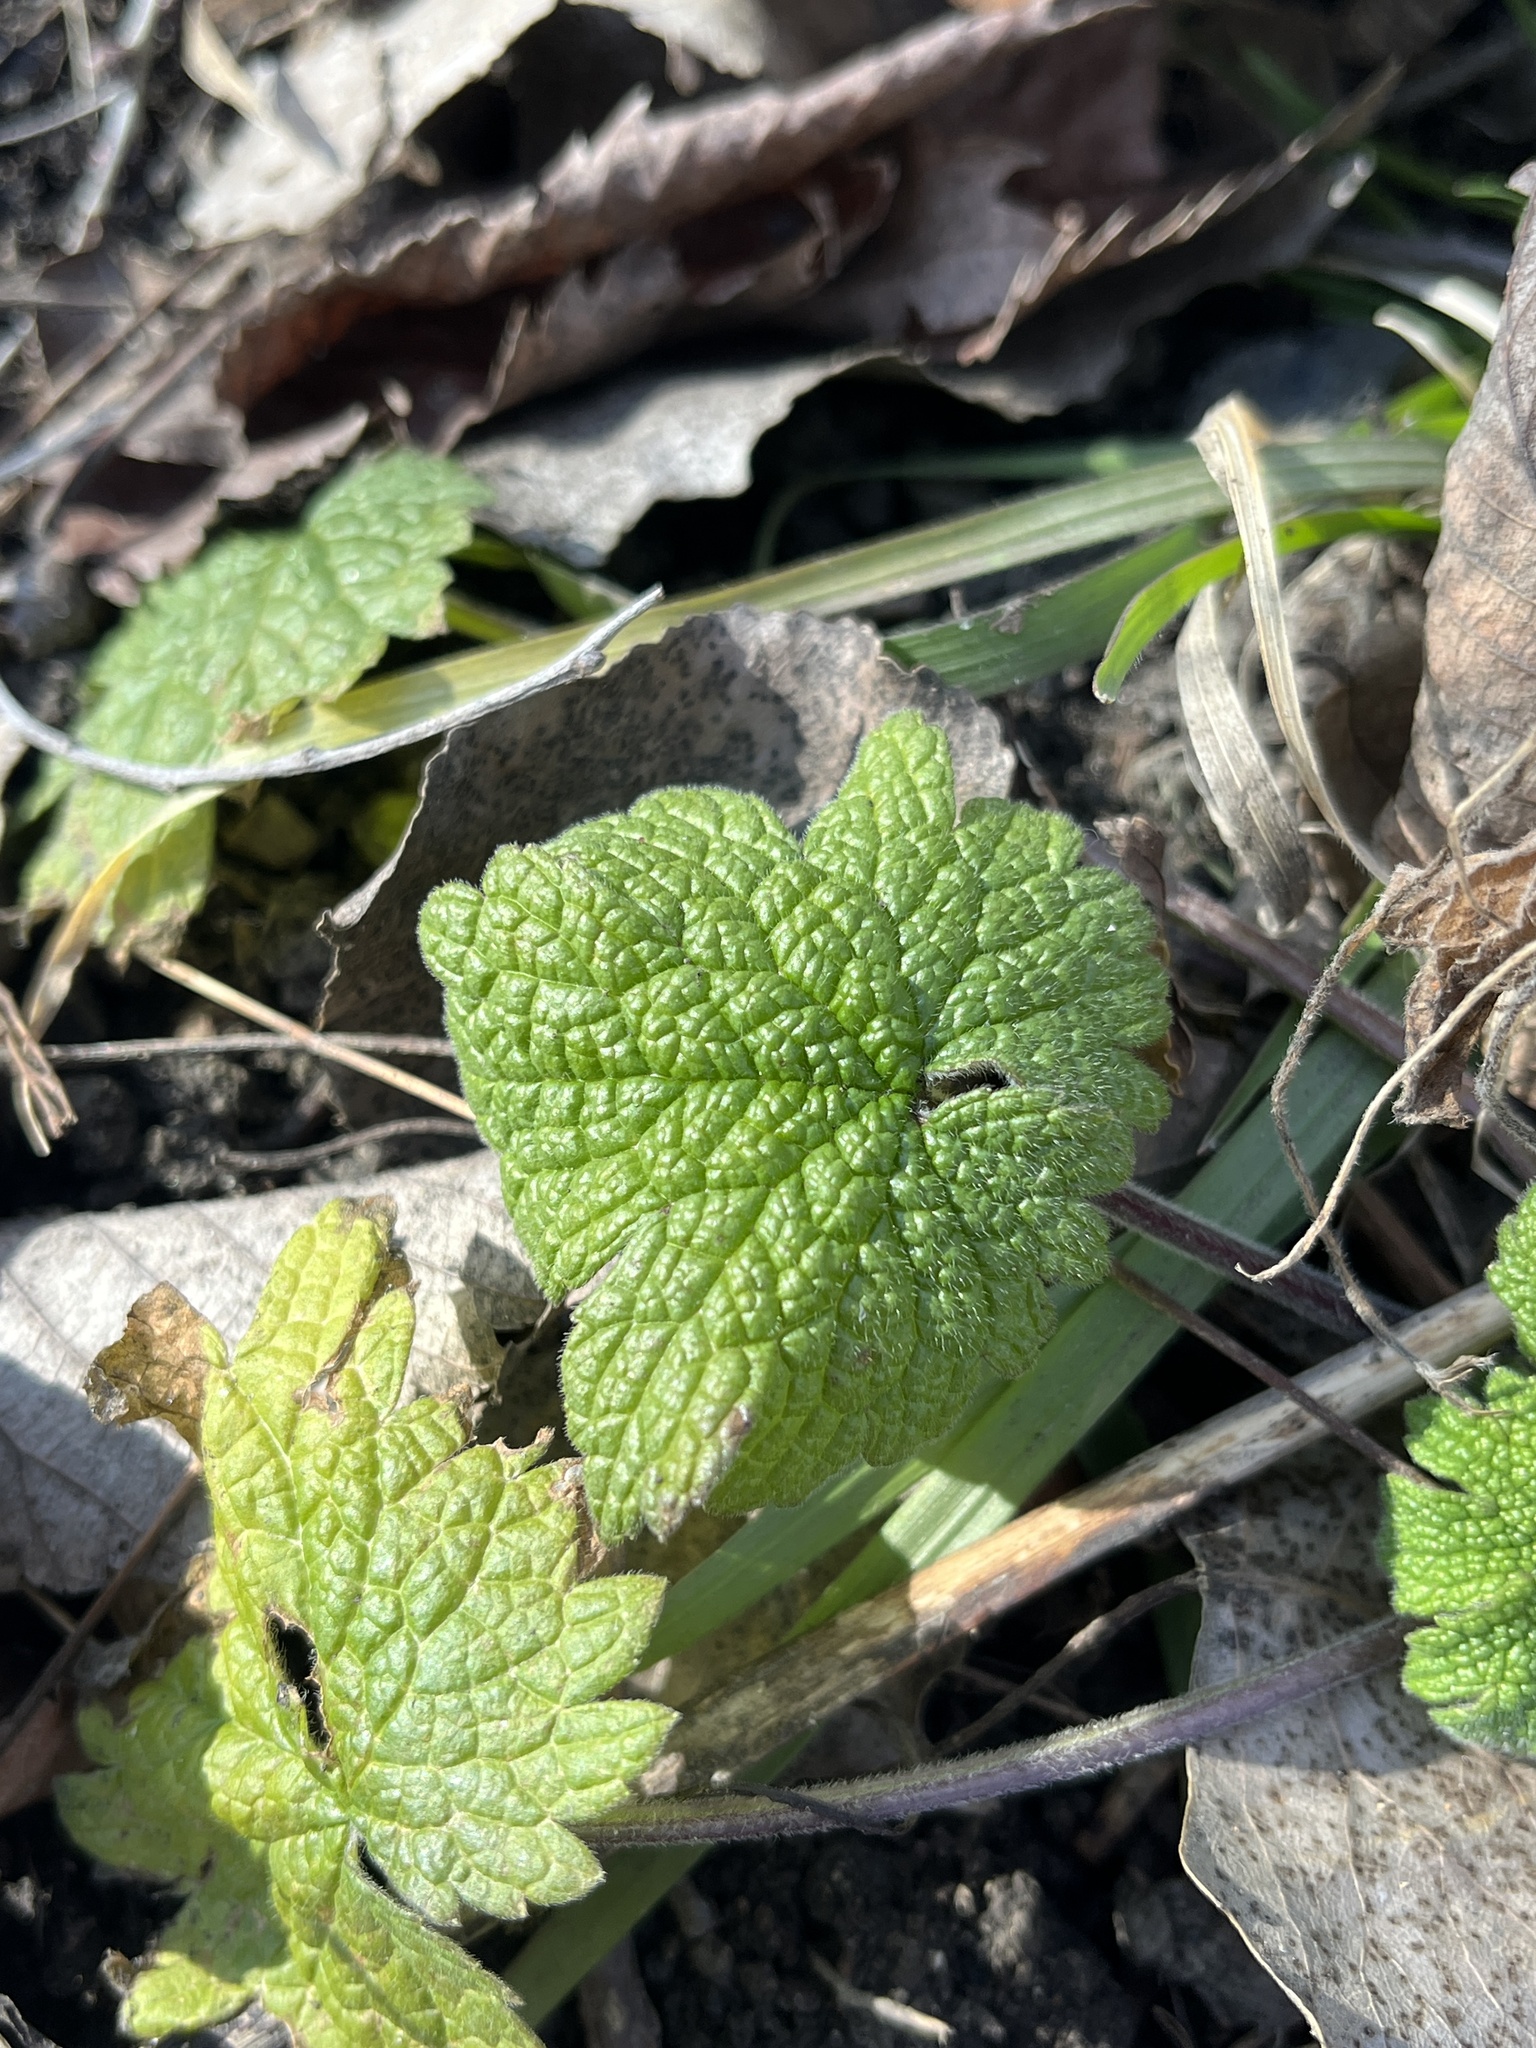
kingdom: Plantae
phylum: Tracheophyta
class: Magnoliopsida
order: Lamiales
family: Lamiaceae
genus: Leonurus
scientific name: Leonurus cardiaca
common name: Motherwort
